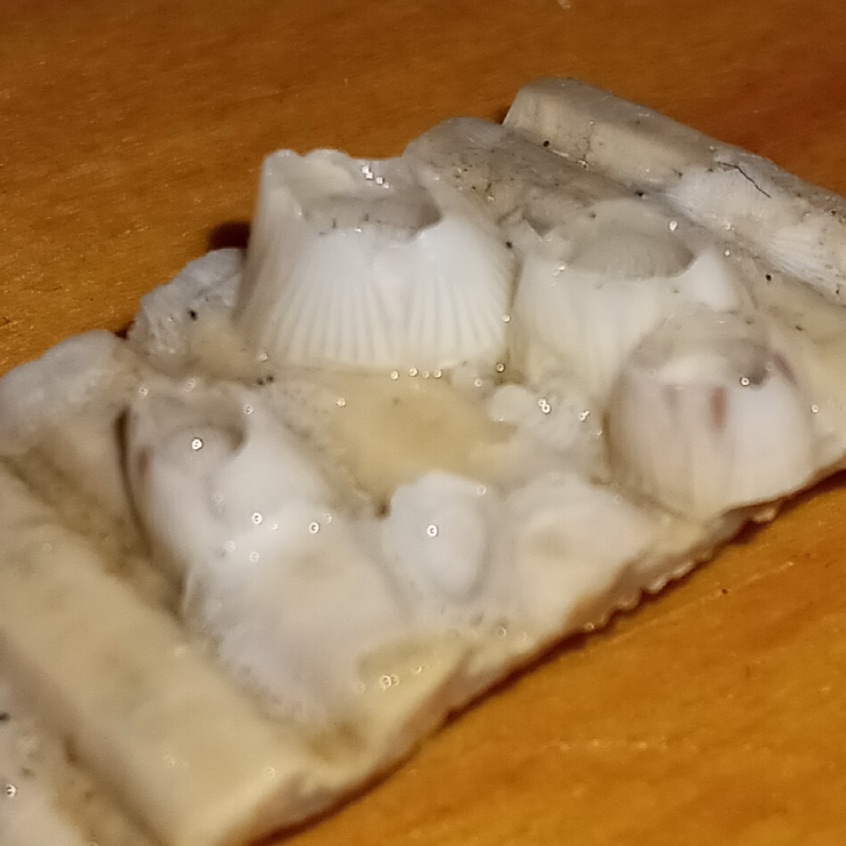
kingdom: Animalia
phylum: Arthropoda
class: Maxillopoda
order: Sessilia
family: Balanidae
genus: Amphibalanus
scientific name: Amphibalanus venustus
